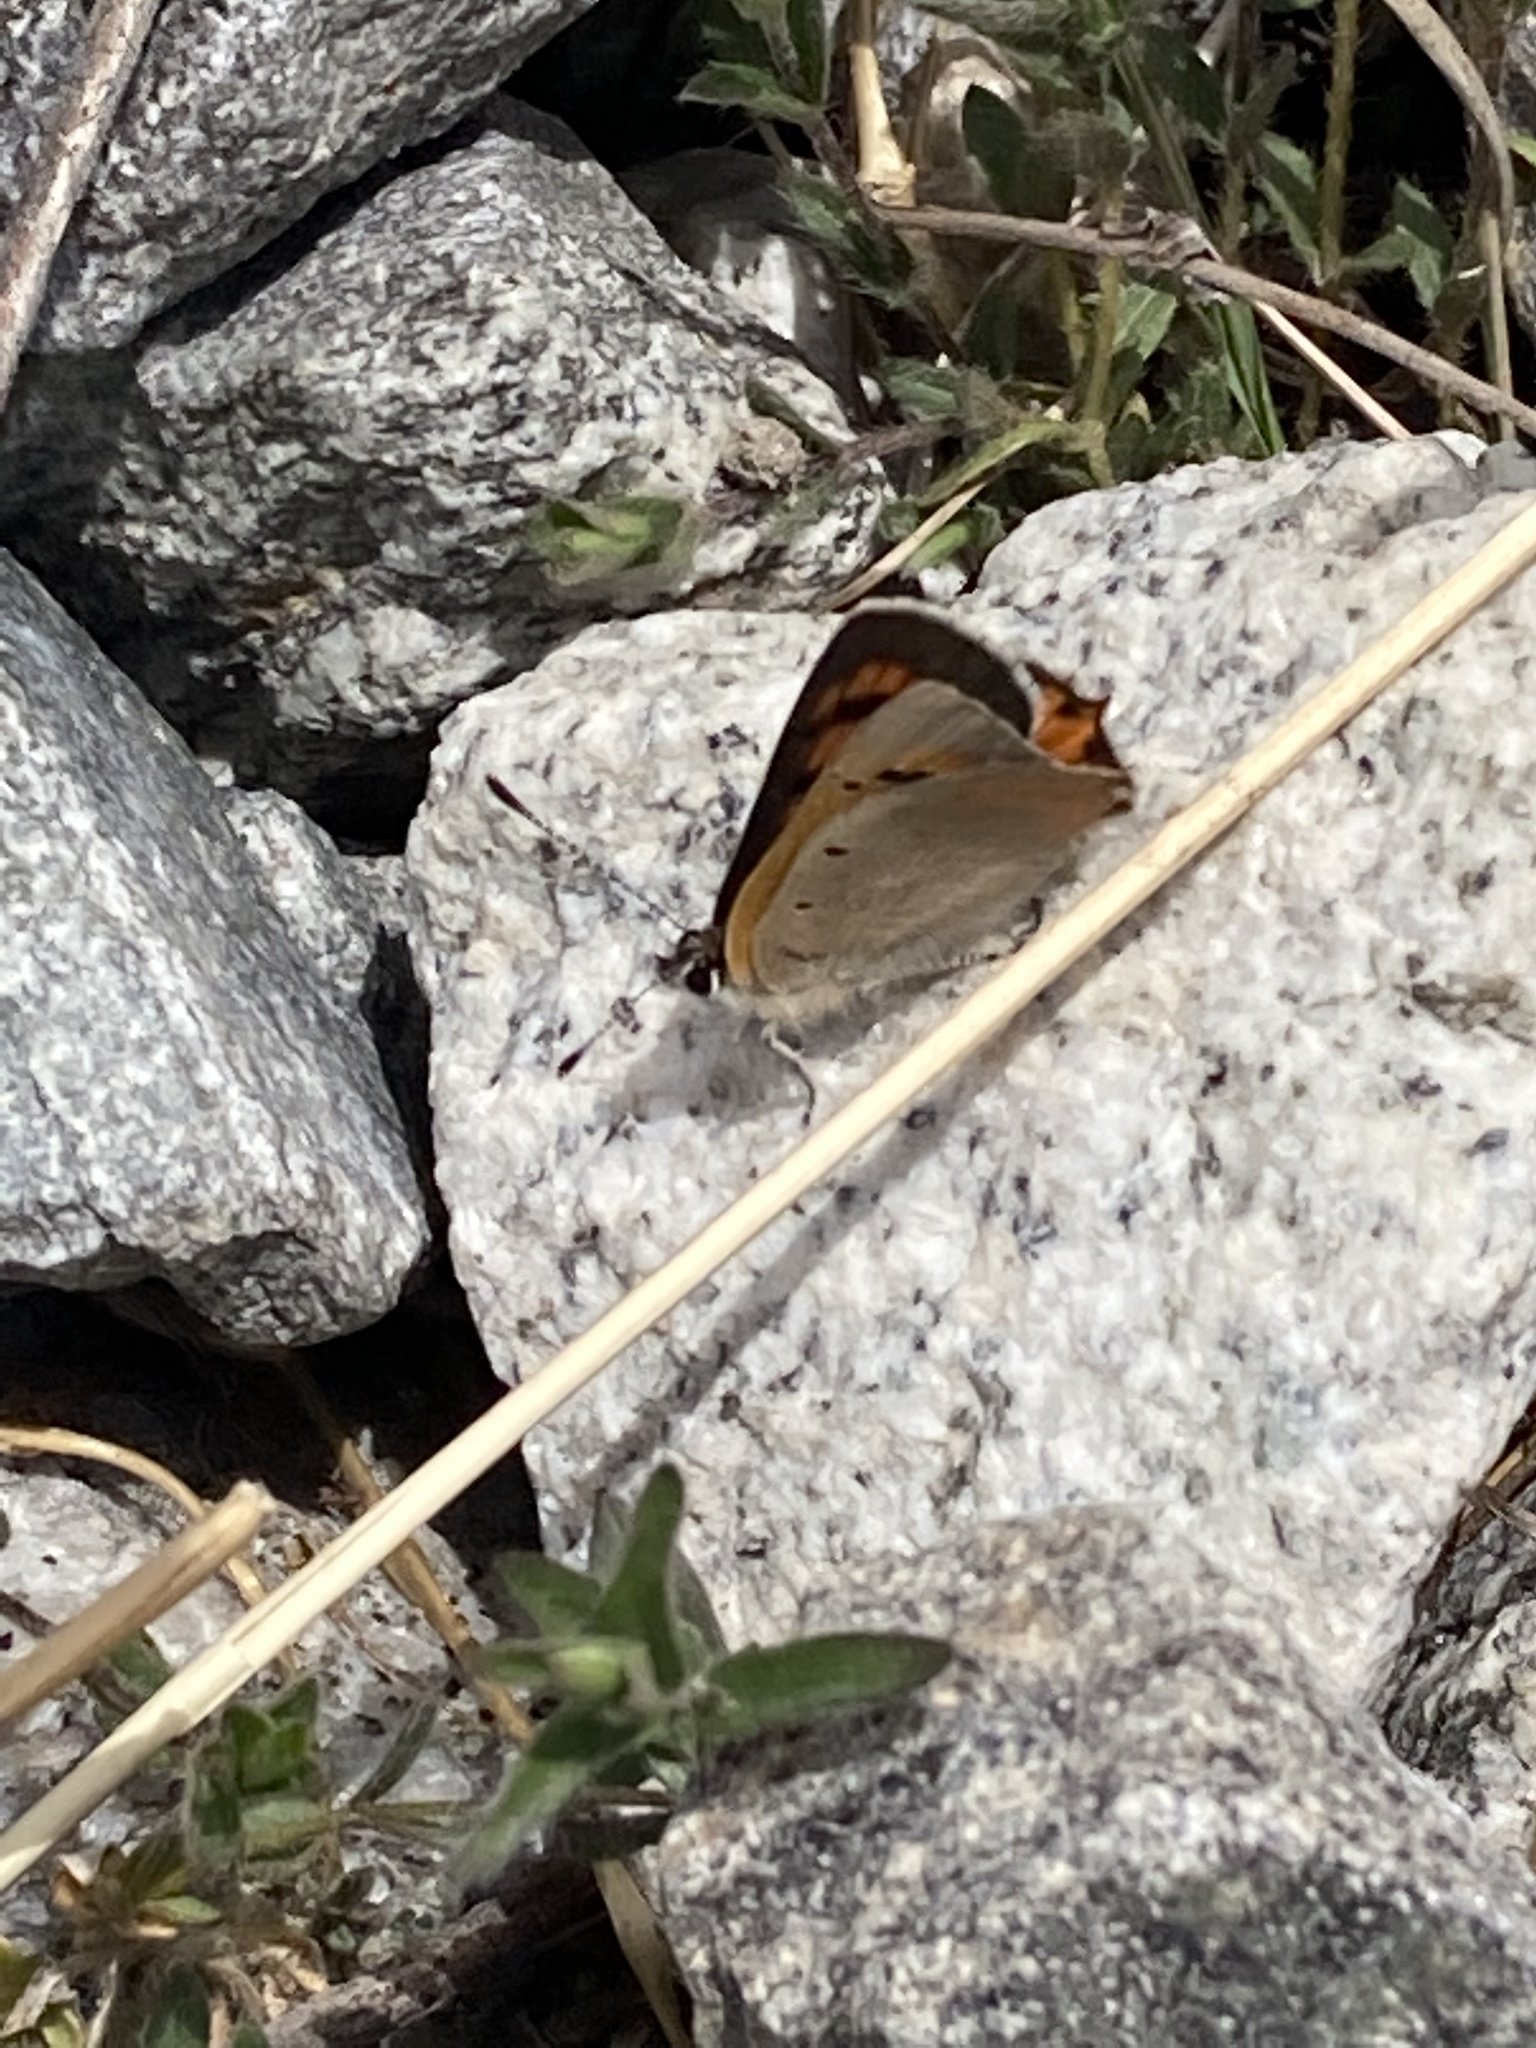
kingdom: Animalia
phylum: Arthropoda
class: Insecta
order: Lepidoptera
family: Lycaenidae
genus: Lycaena
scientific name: Lycaena phlaeas
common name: Small copper
